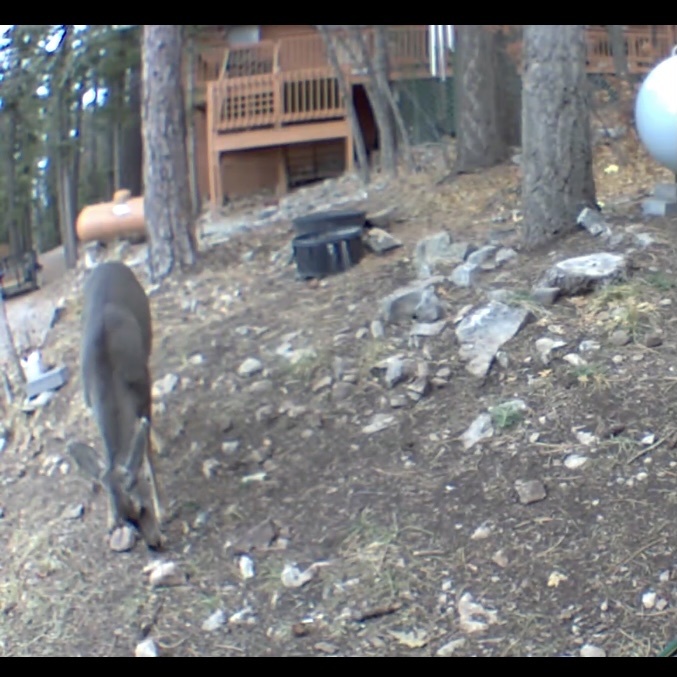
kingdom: Animalia
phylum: Chordata
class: Mammalia
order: Artiodactyla
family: Cervidae
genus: Odocoileus
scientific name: Odocoileus hemionus
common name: Mule deer
